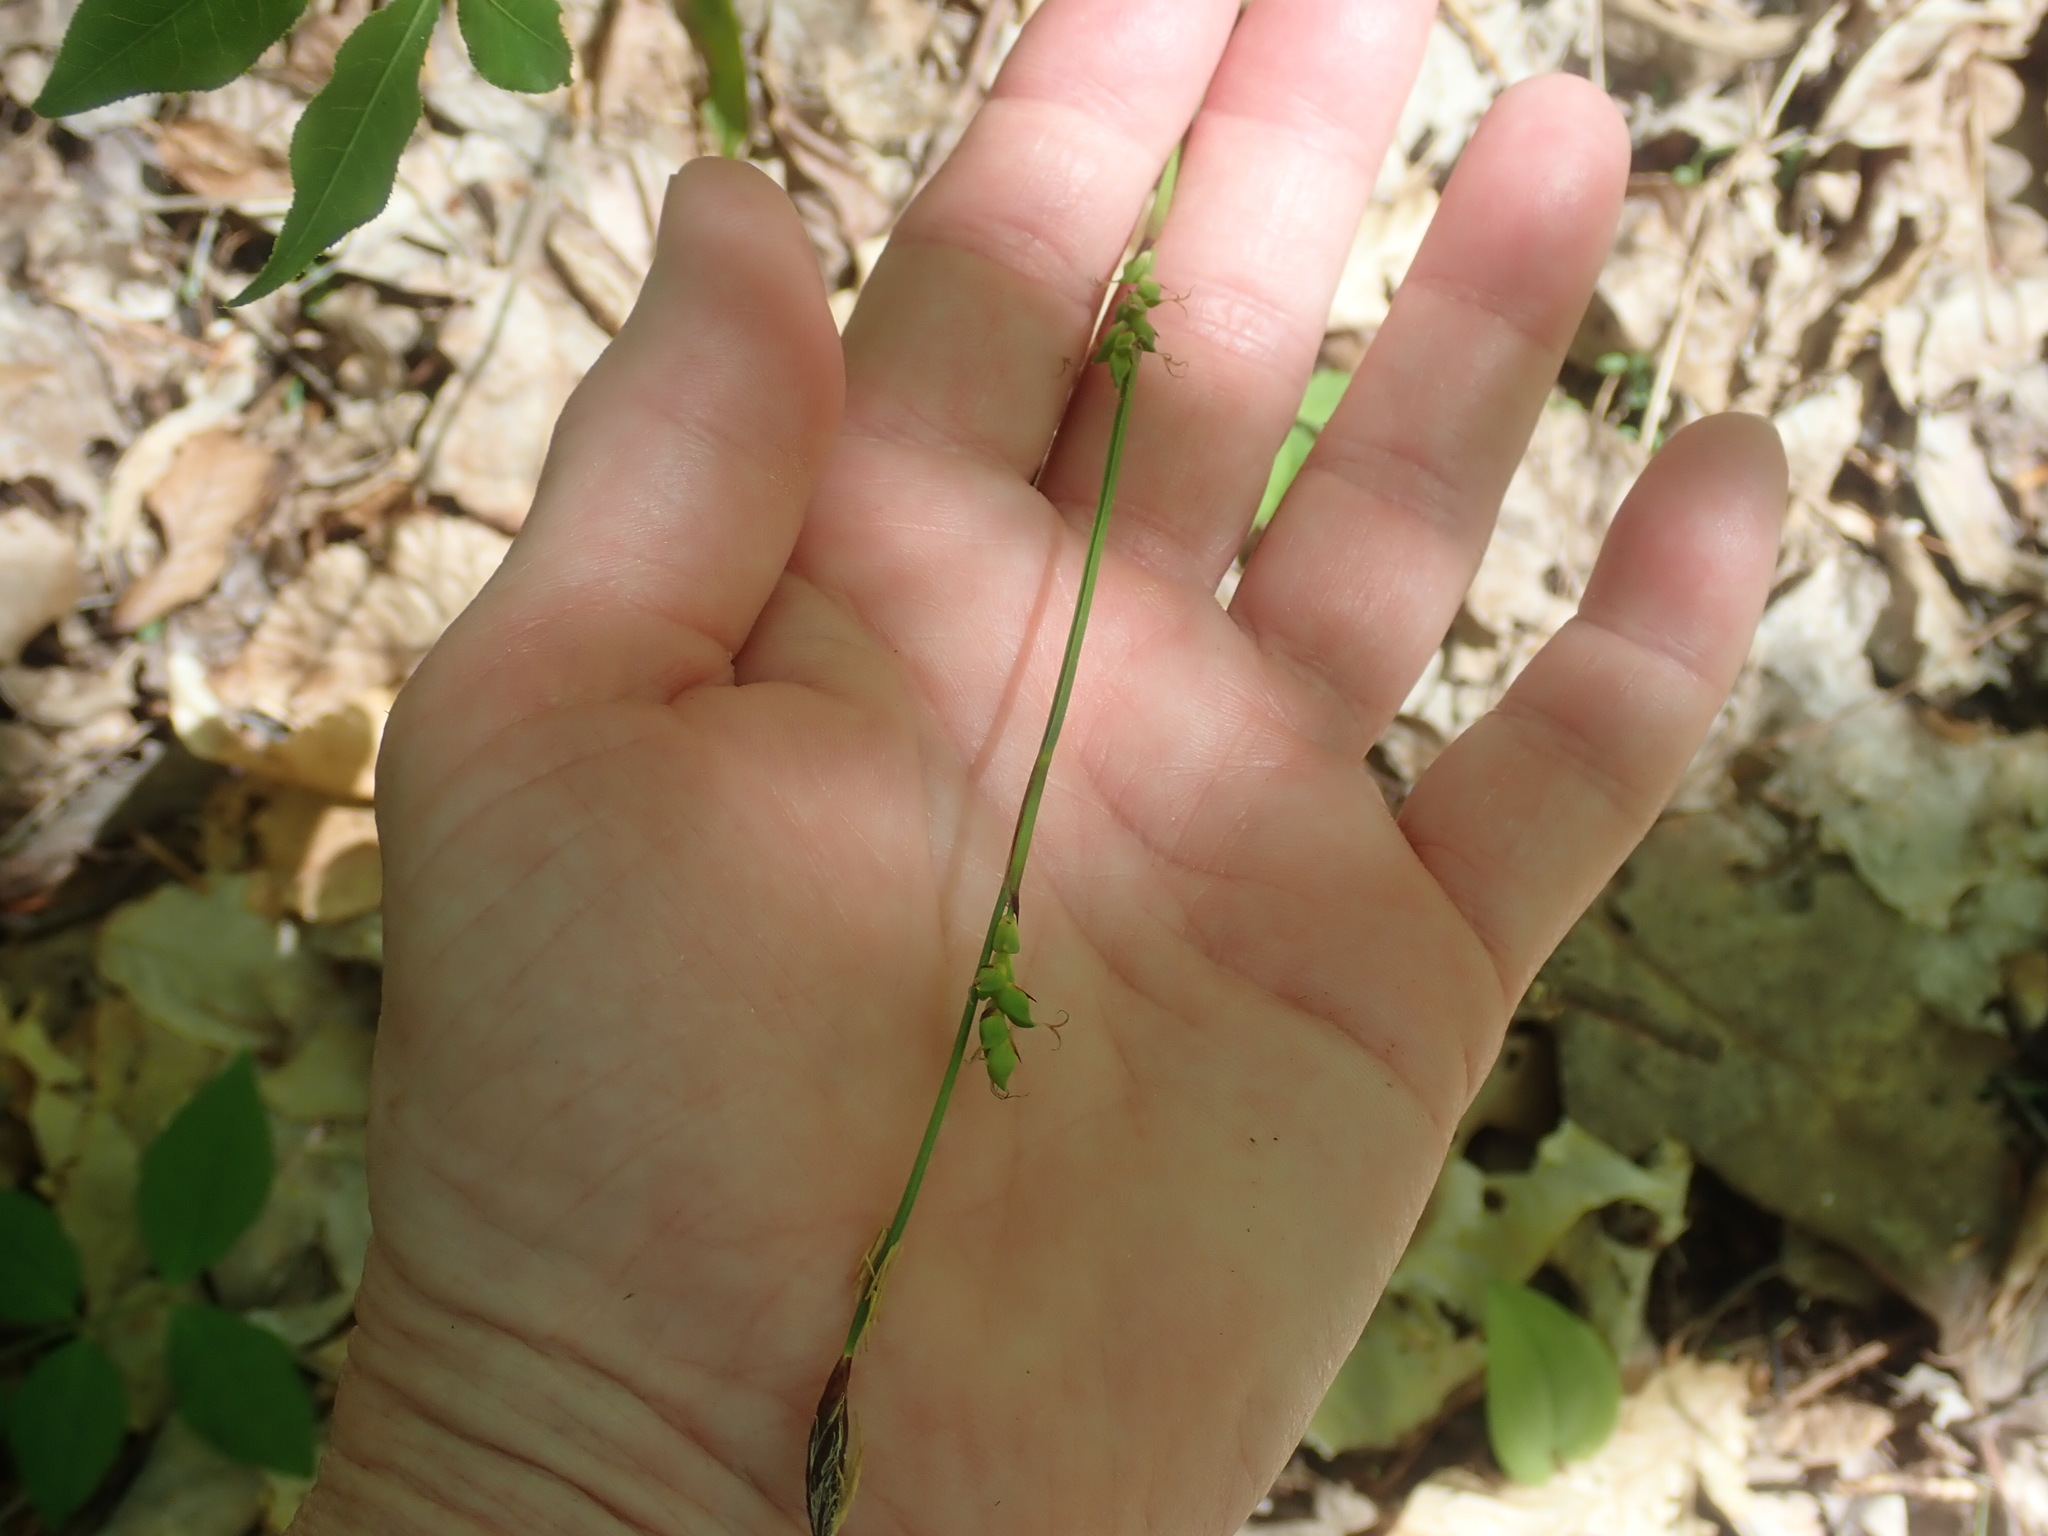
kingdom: Plantae
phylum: Tracheophyta
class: Liliopsida
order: Poales
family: Cyperaceae
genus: Carex
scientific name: Carex plantaginea
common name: Plantain-leaved sedge
